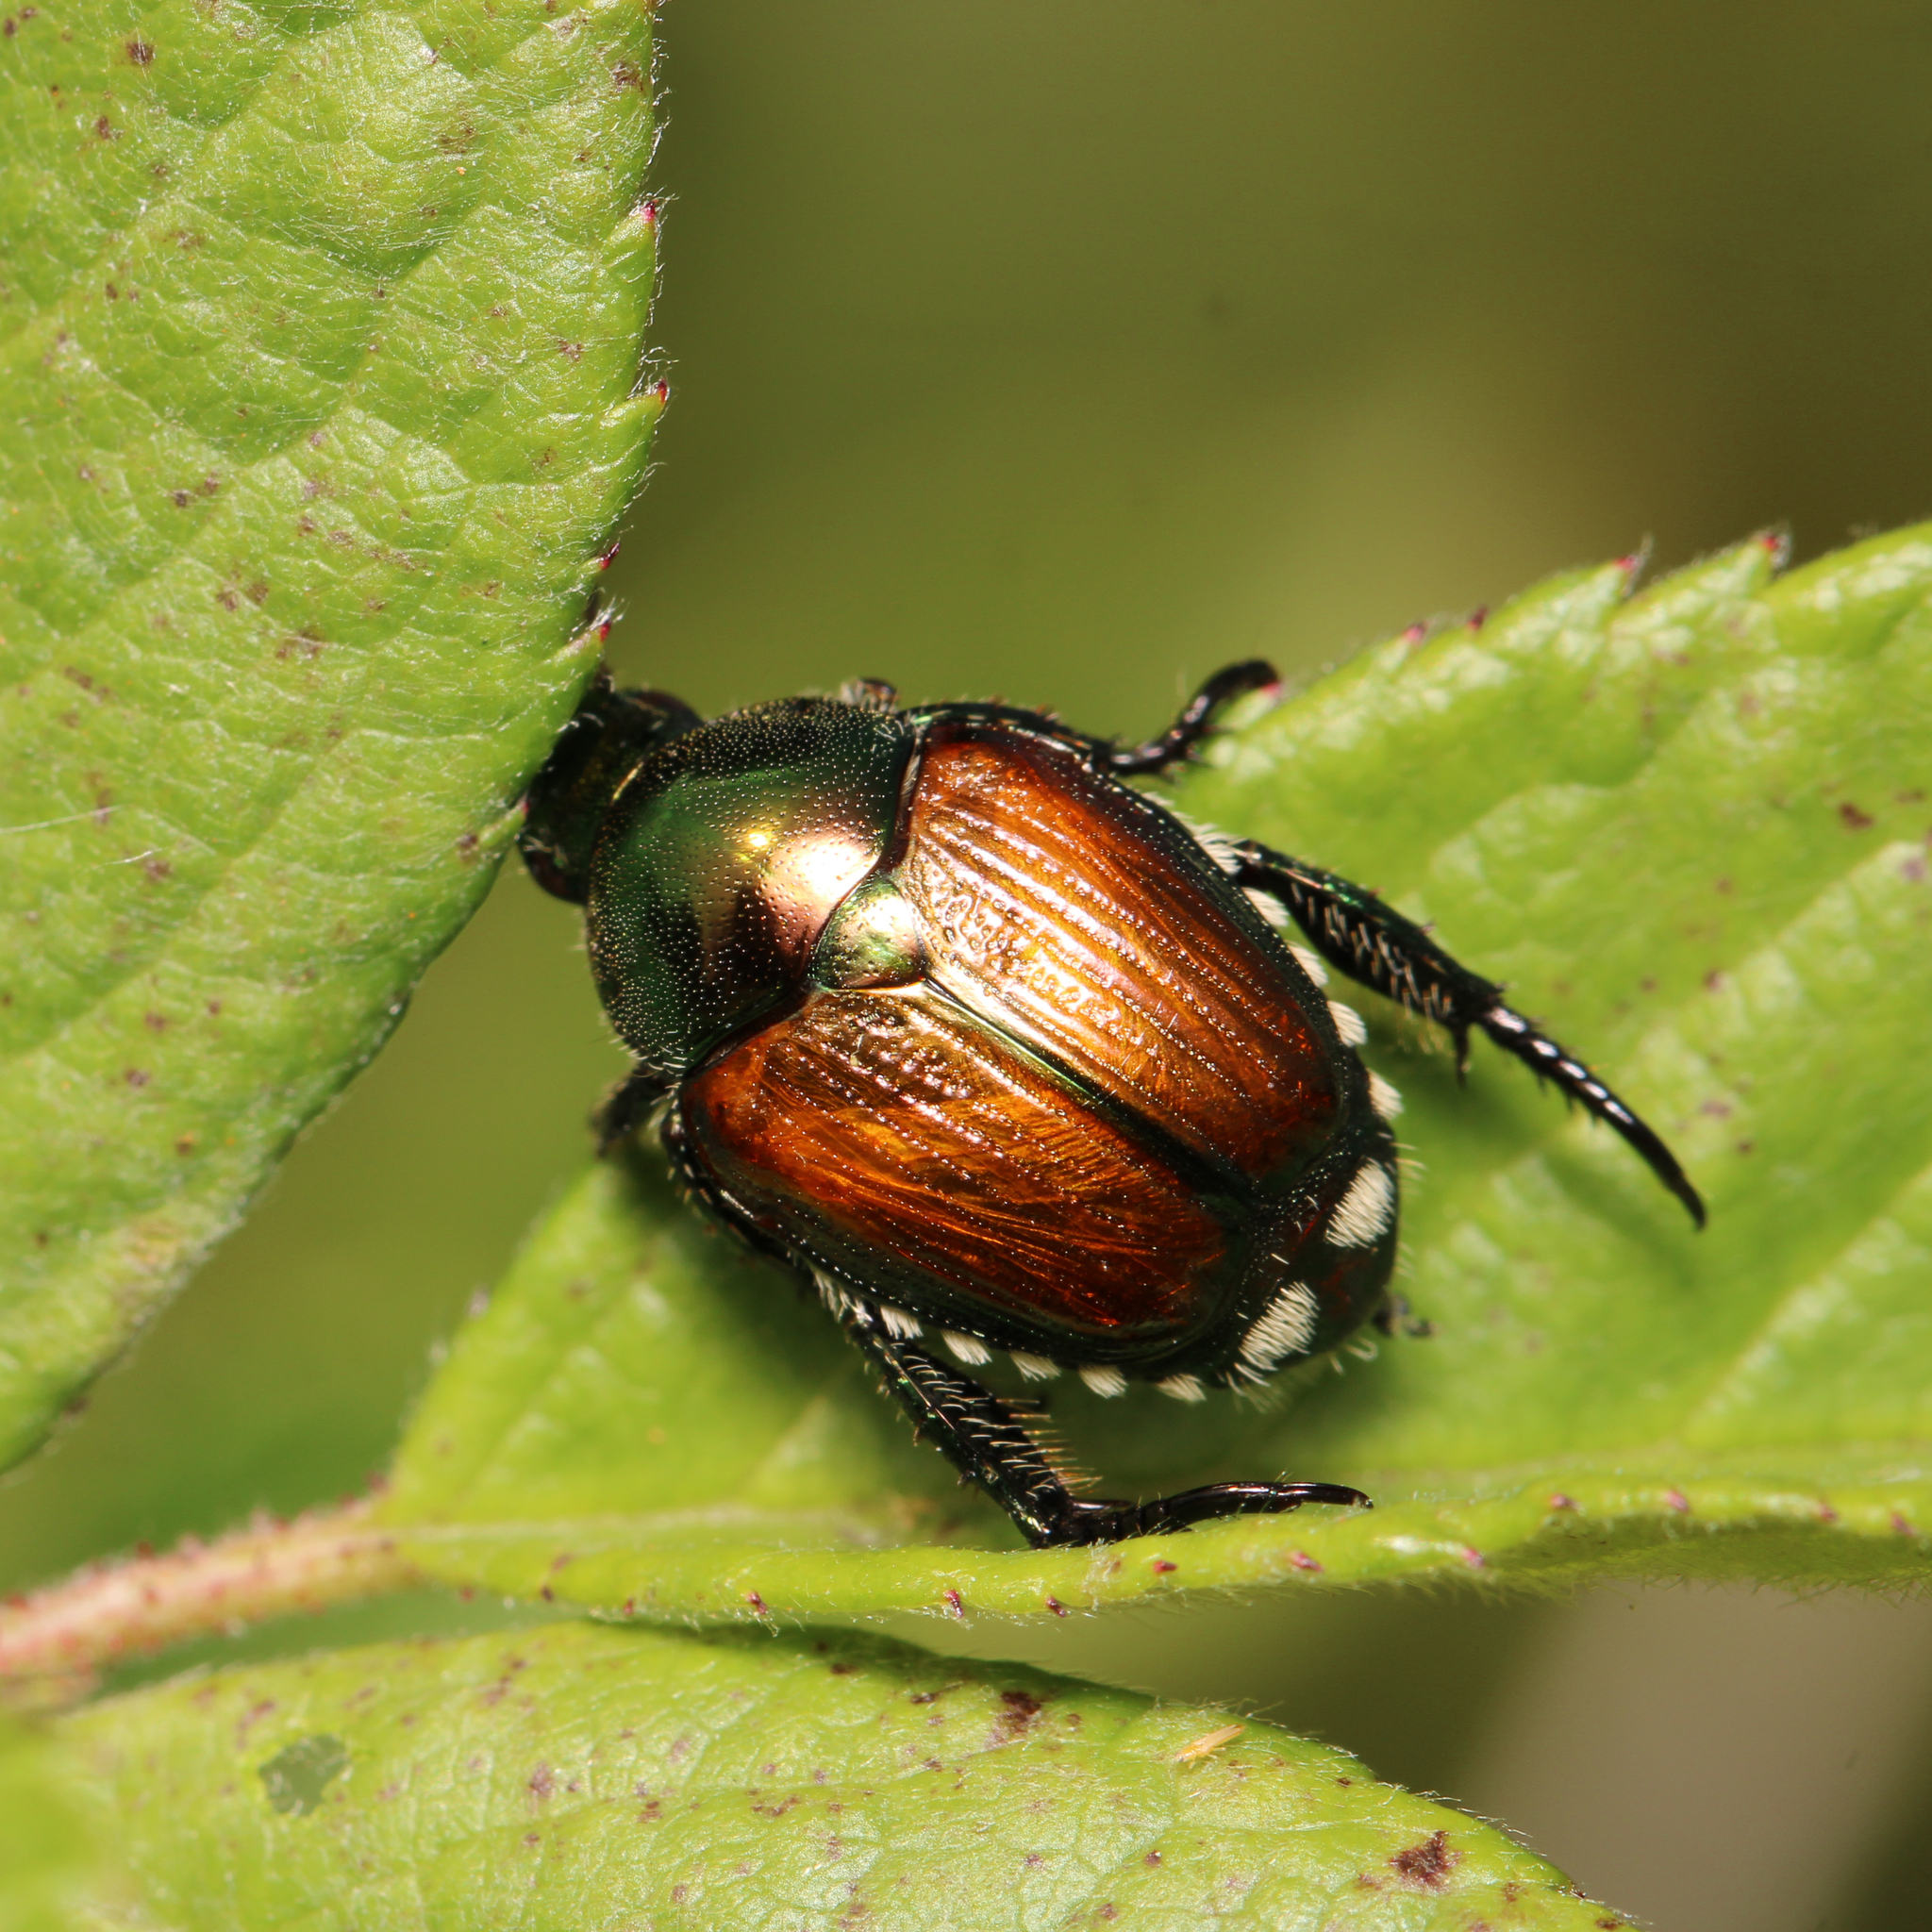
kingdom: Animalia
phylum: Arthropoda
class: Insecta
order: Coleoptera
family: Scarabaeidae
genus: Popillia
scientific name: Popillia japonica
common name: Japanese beetle
